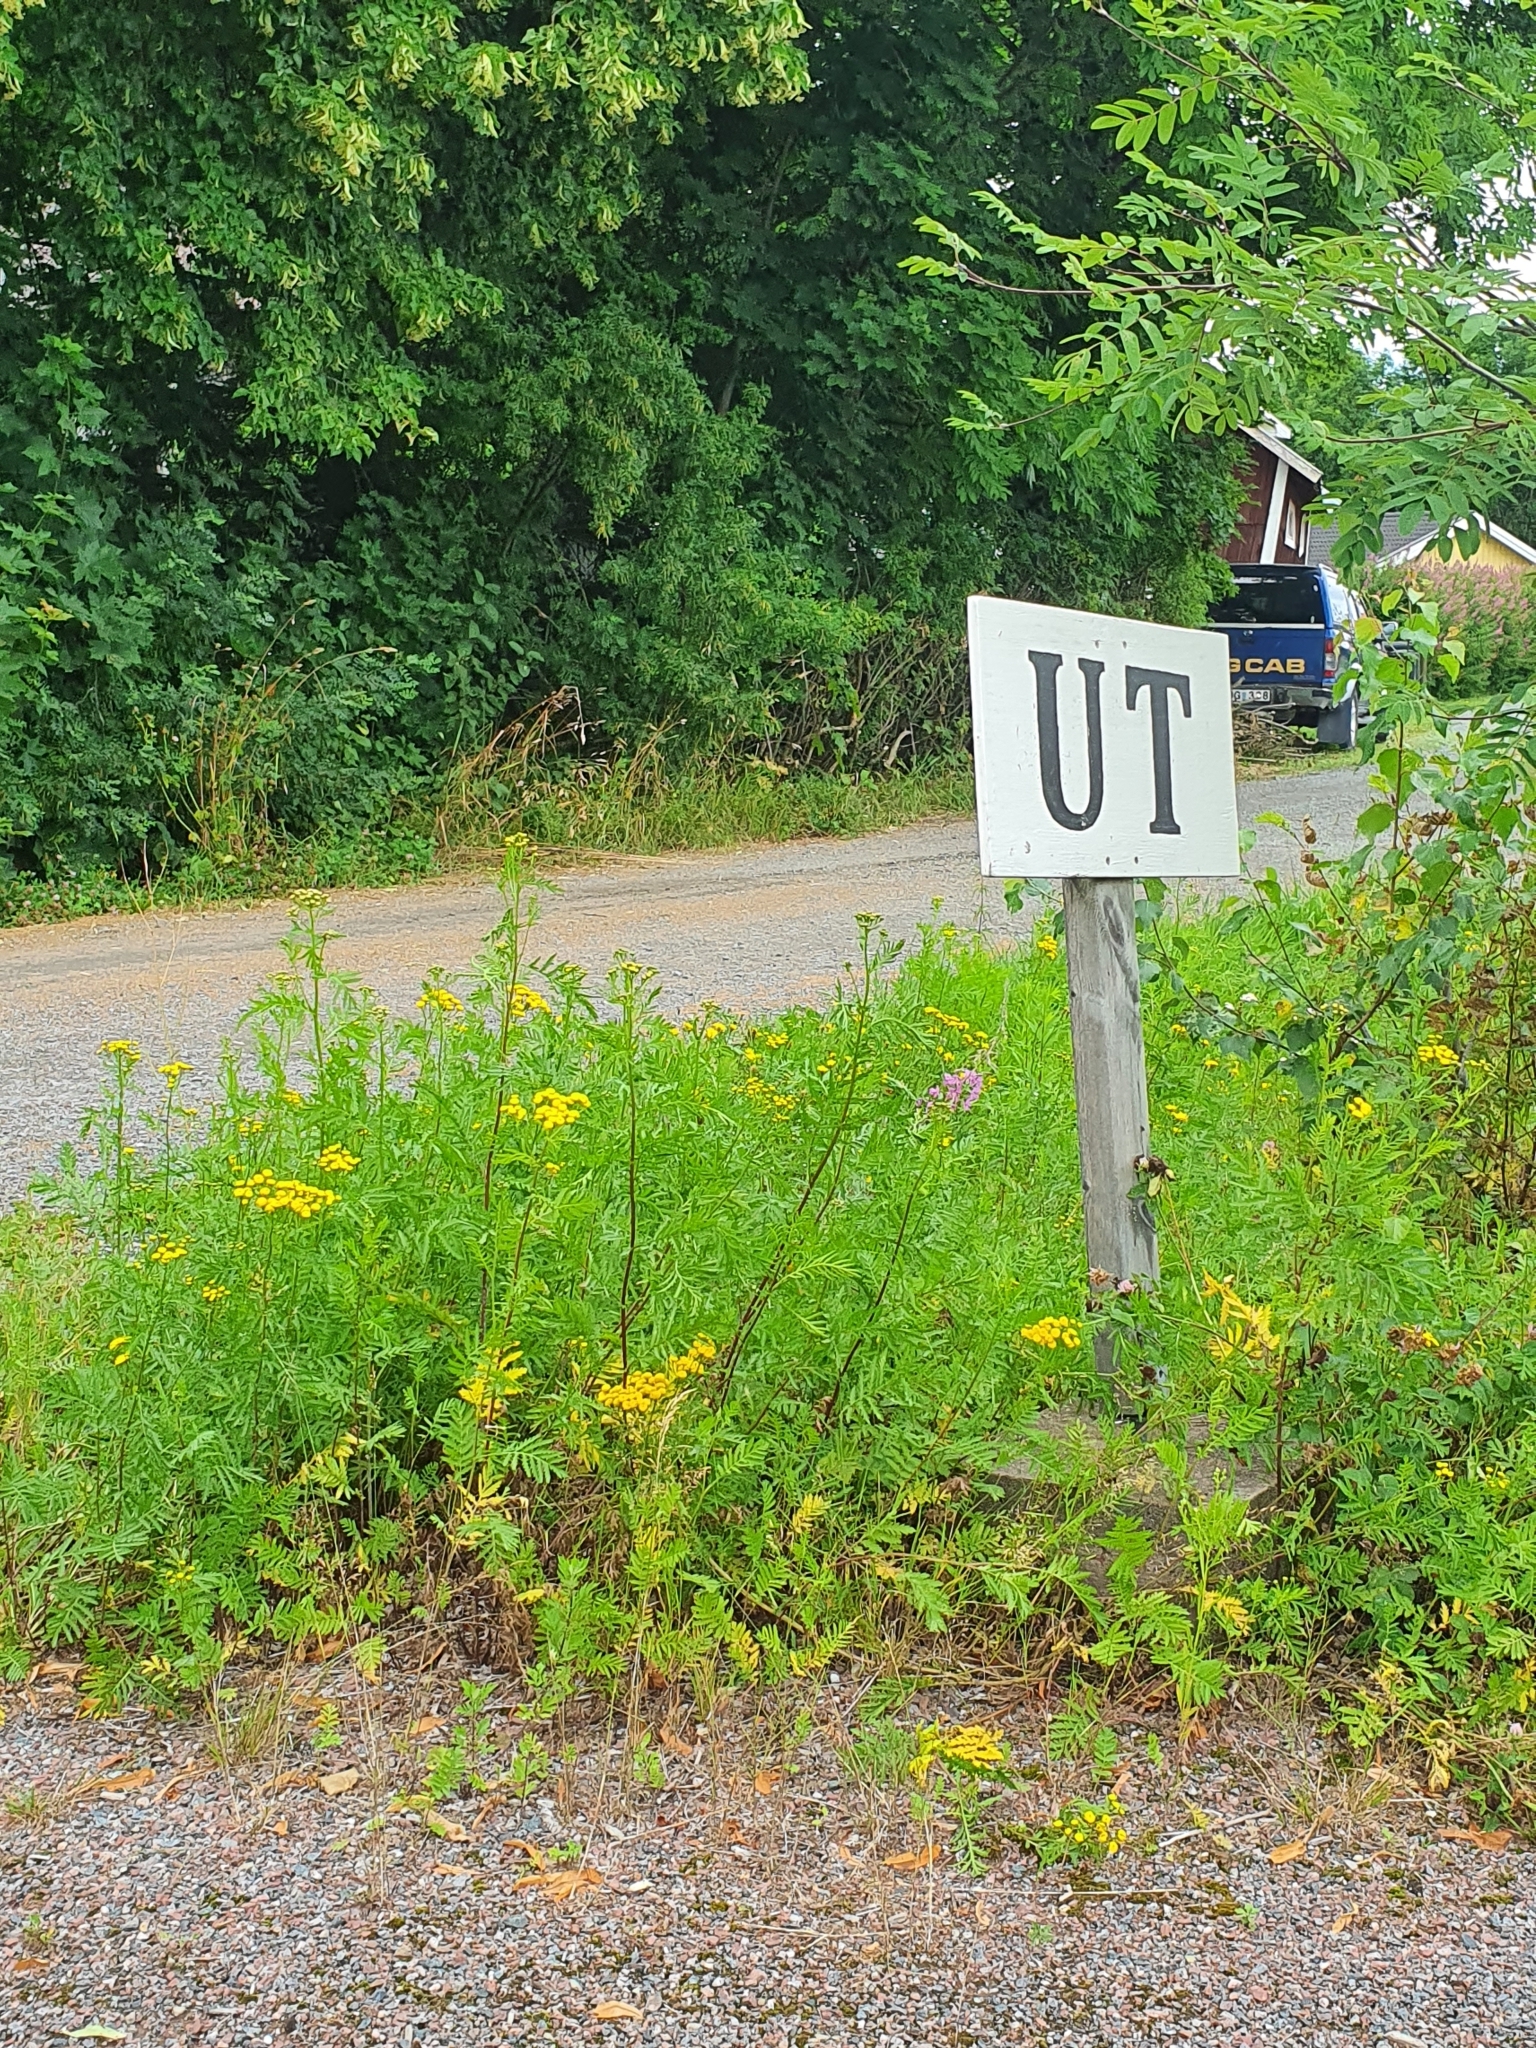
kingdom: Plantae
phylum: Tracheophyta
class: Magnoliopsida
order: Asterales
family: Asteraceae
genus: Tanacetum
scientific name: Tanacetum vulgare
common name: Common tansy
